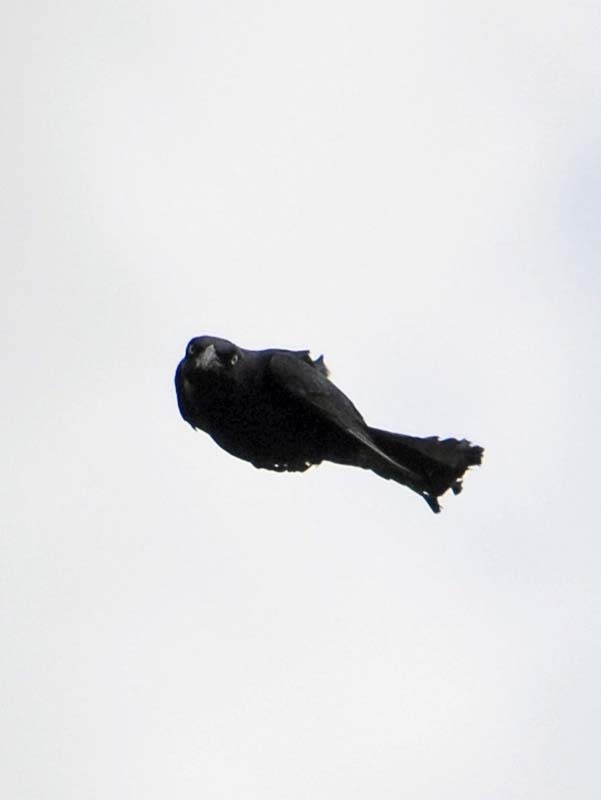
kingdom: Animalia
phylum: Chordata
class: Aves
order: Passeriformes
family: Icteridae
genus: Quiscalus
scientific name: Quiscalus mexicanus
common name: Great-tailed grackle
